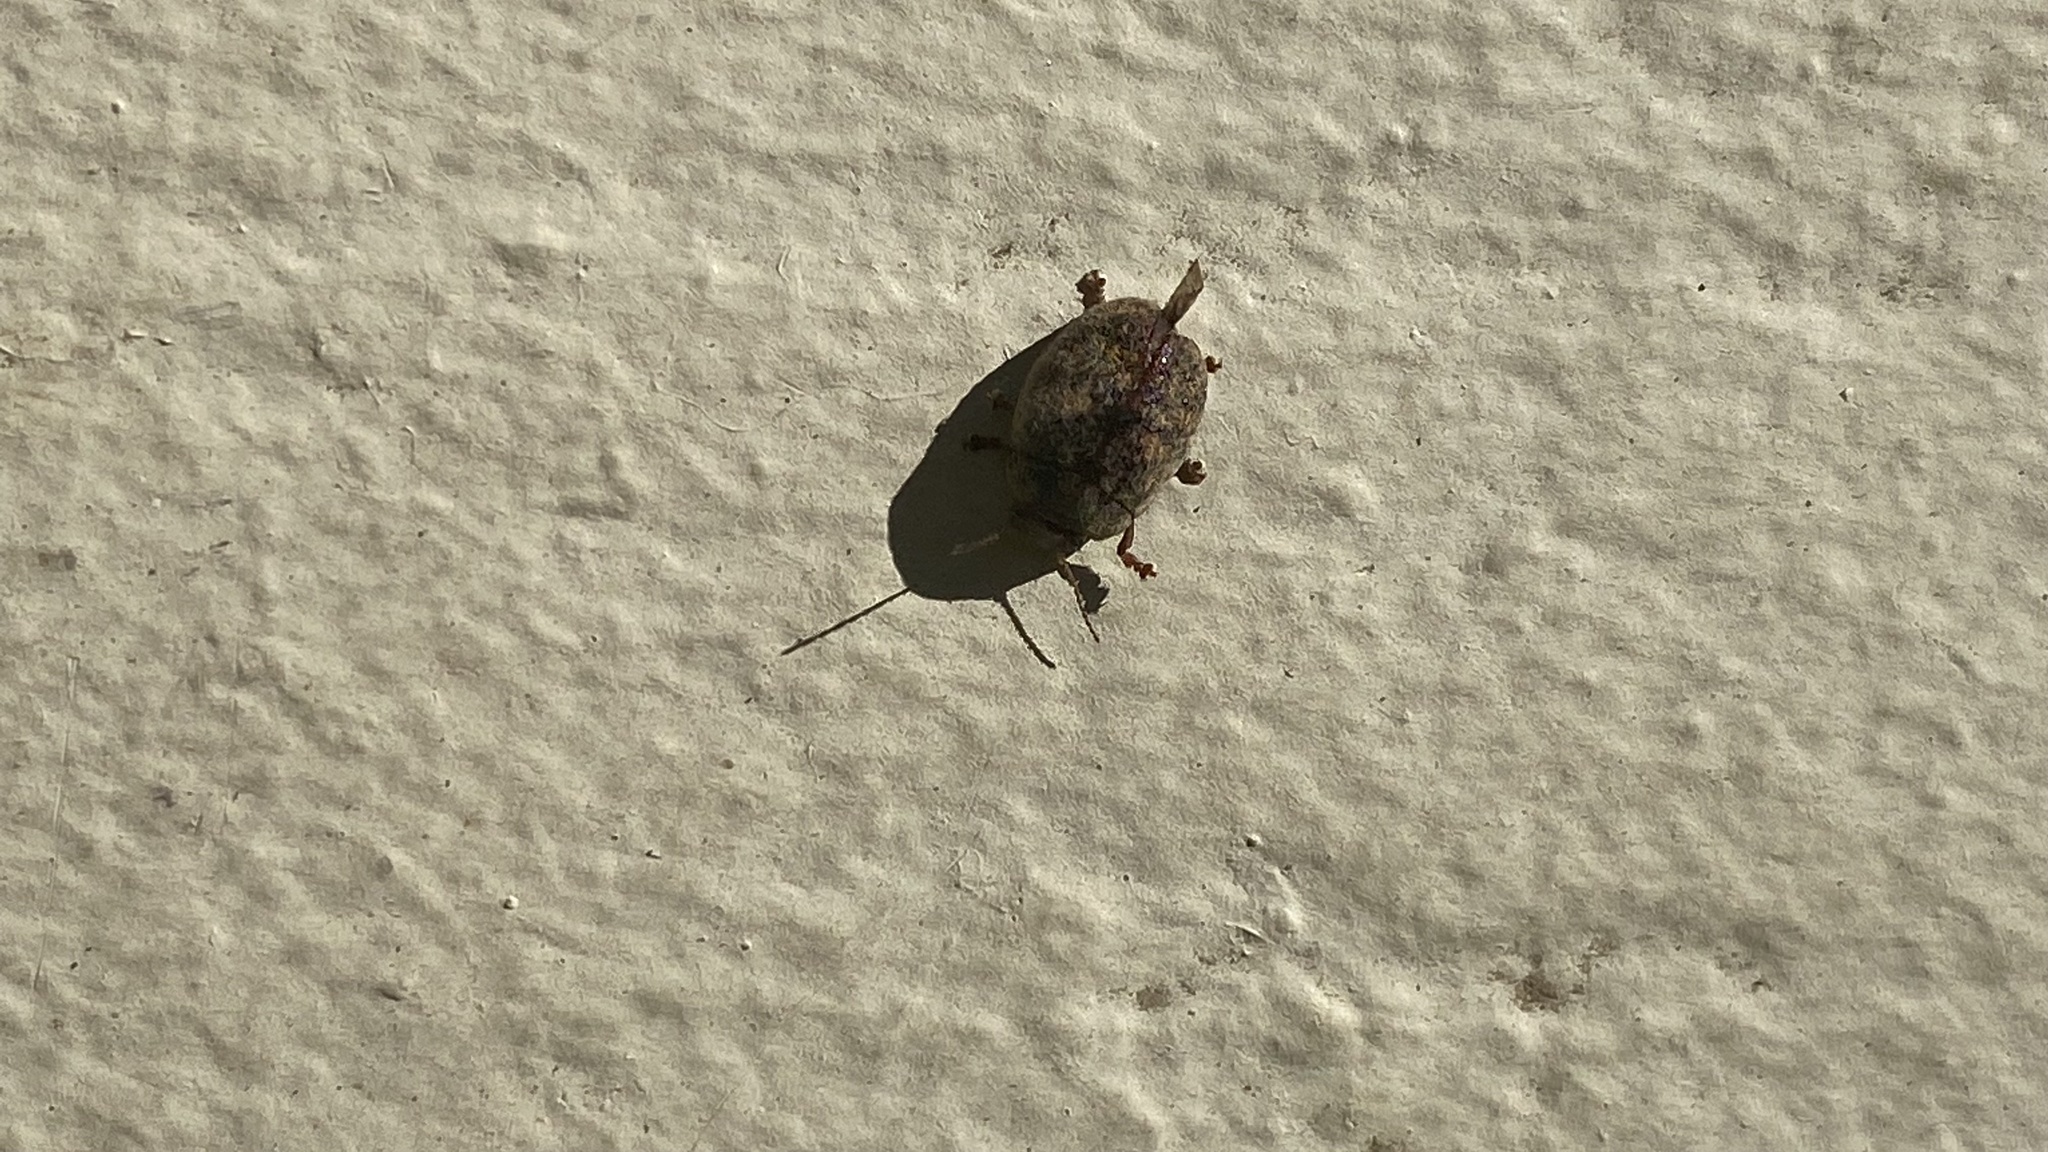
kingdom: Animalia
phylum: Arthropoda
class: Insecta
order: Coleoptera
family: Chrysomelidae
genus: Trachymela
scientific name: Trachymela sloanei
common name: Australian tortoise beetle
